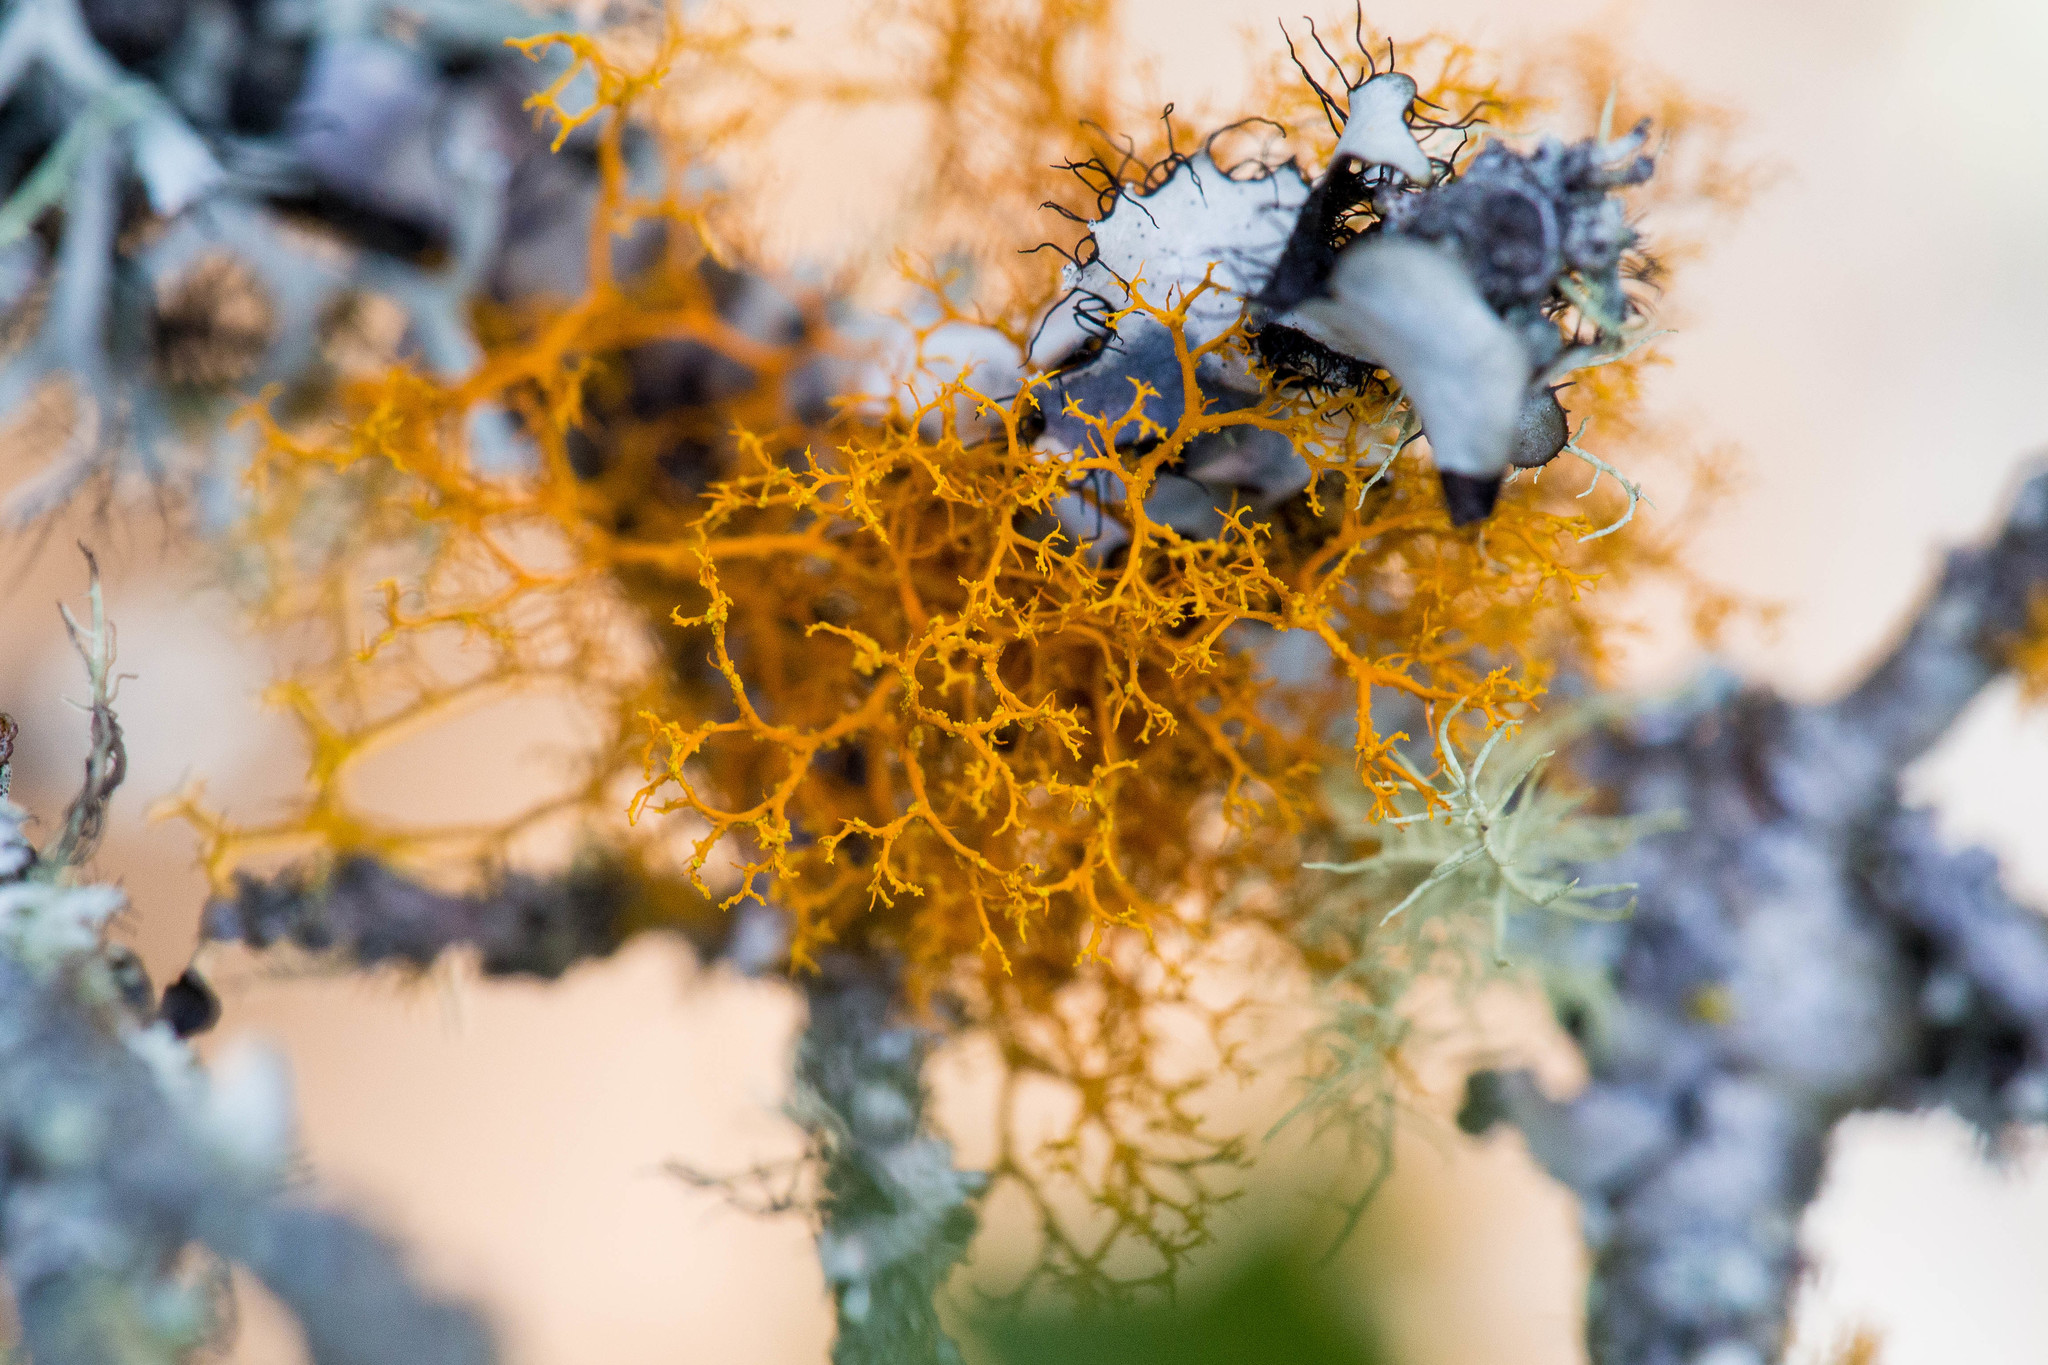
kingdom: Fungi
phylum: Ascomycota
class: Lecanoromycetes
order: Teloschistales
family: Teloschistaceae
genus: Teloschistes
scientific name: Teloschistes flavicans
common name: Golden hair-lichen
